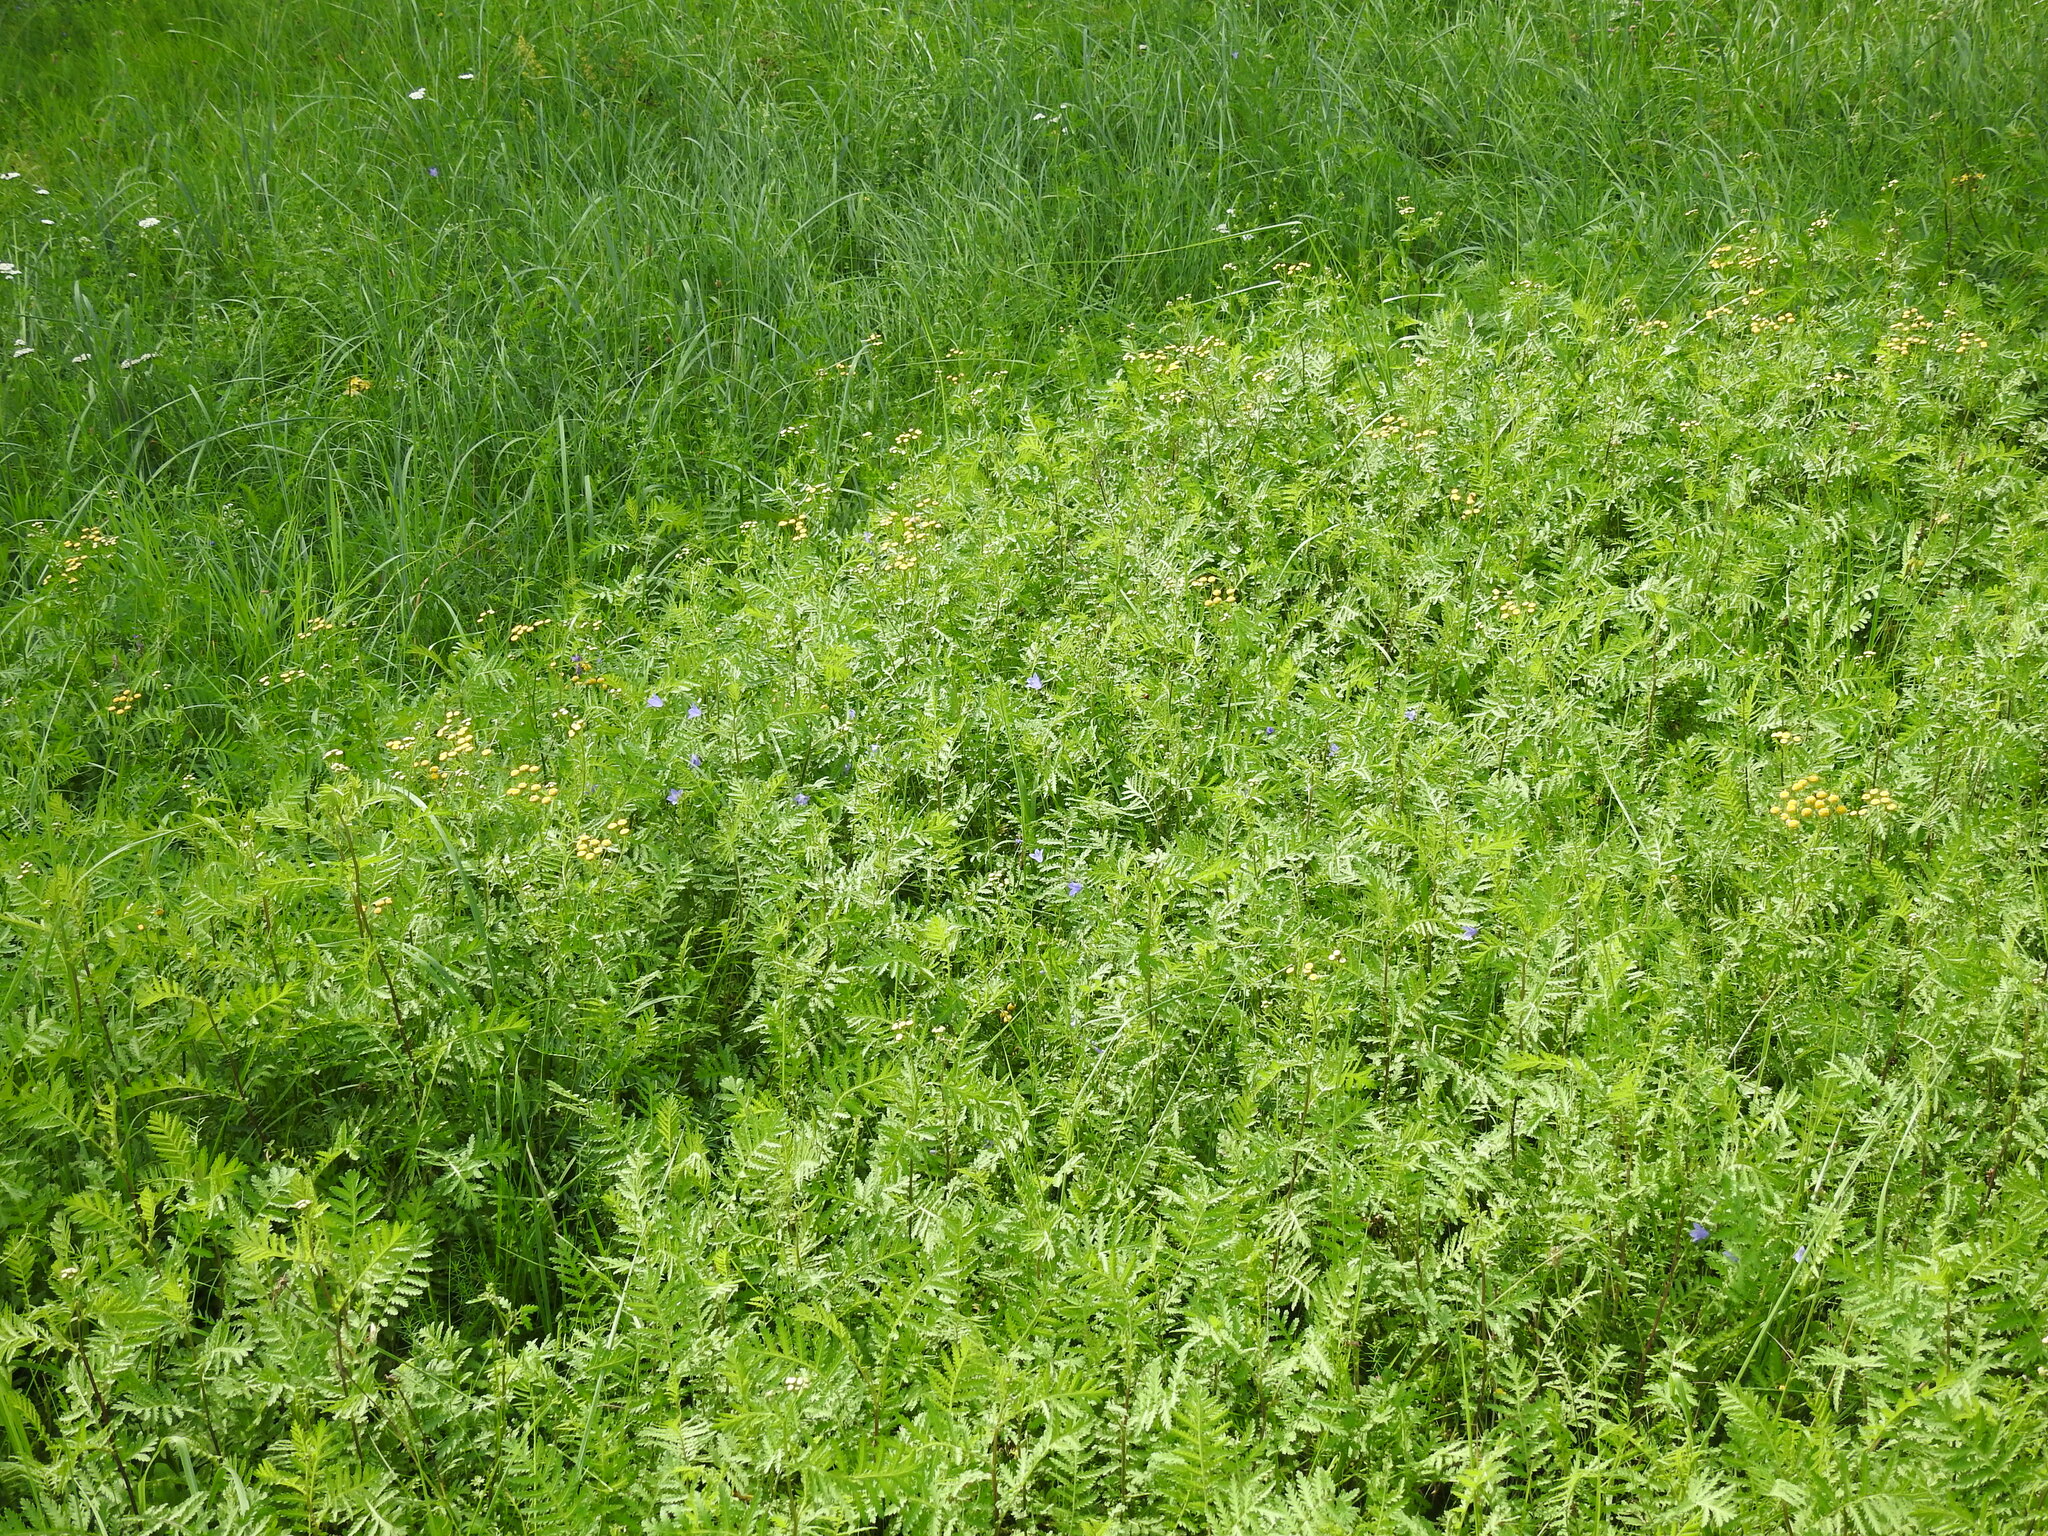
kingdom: Plantae
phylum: Tracheophyta
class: Magnoliopsida
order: Asterales
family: Asteraceae
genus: Tanacetum
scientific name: Tanacetum vulgare
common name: Common tansy
